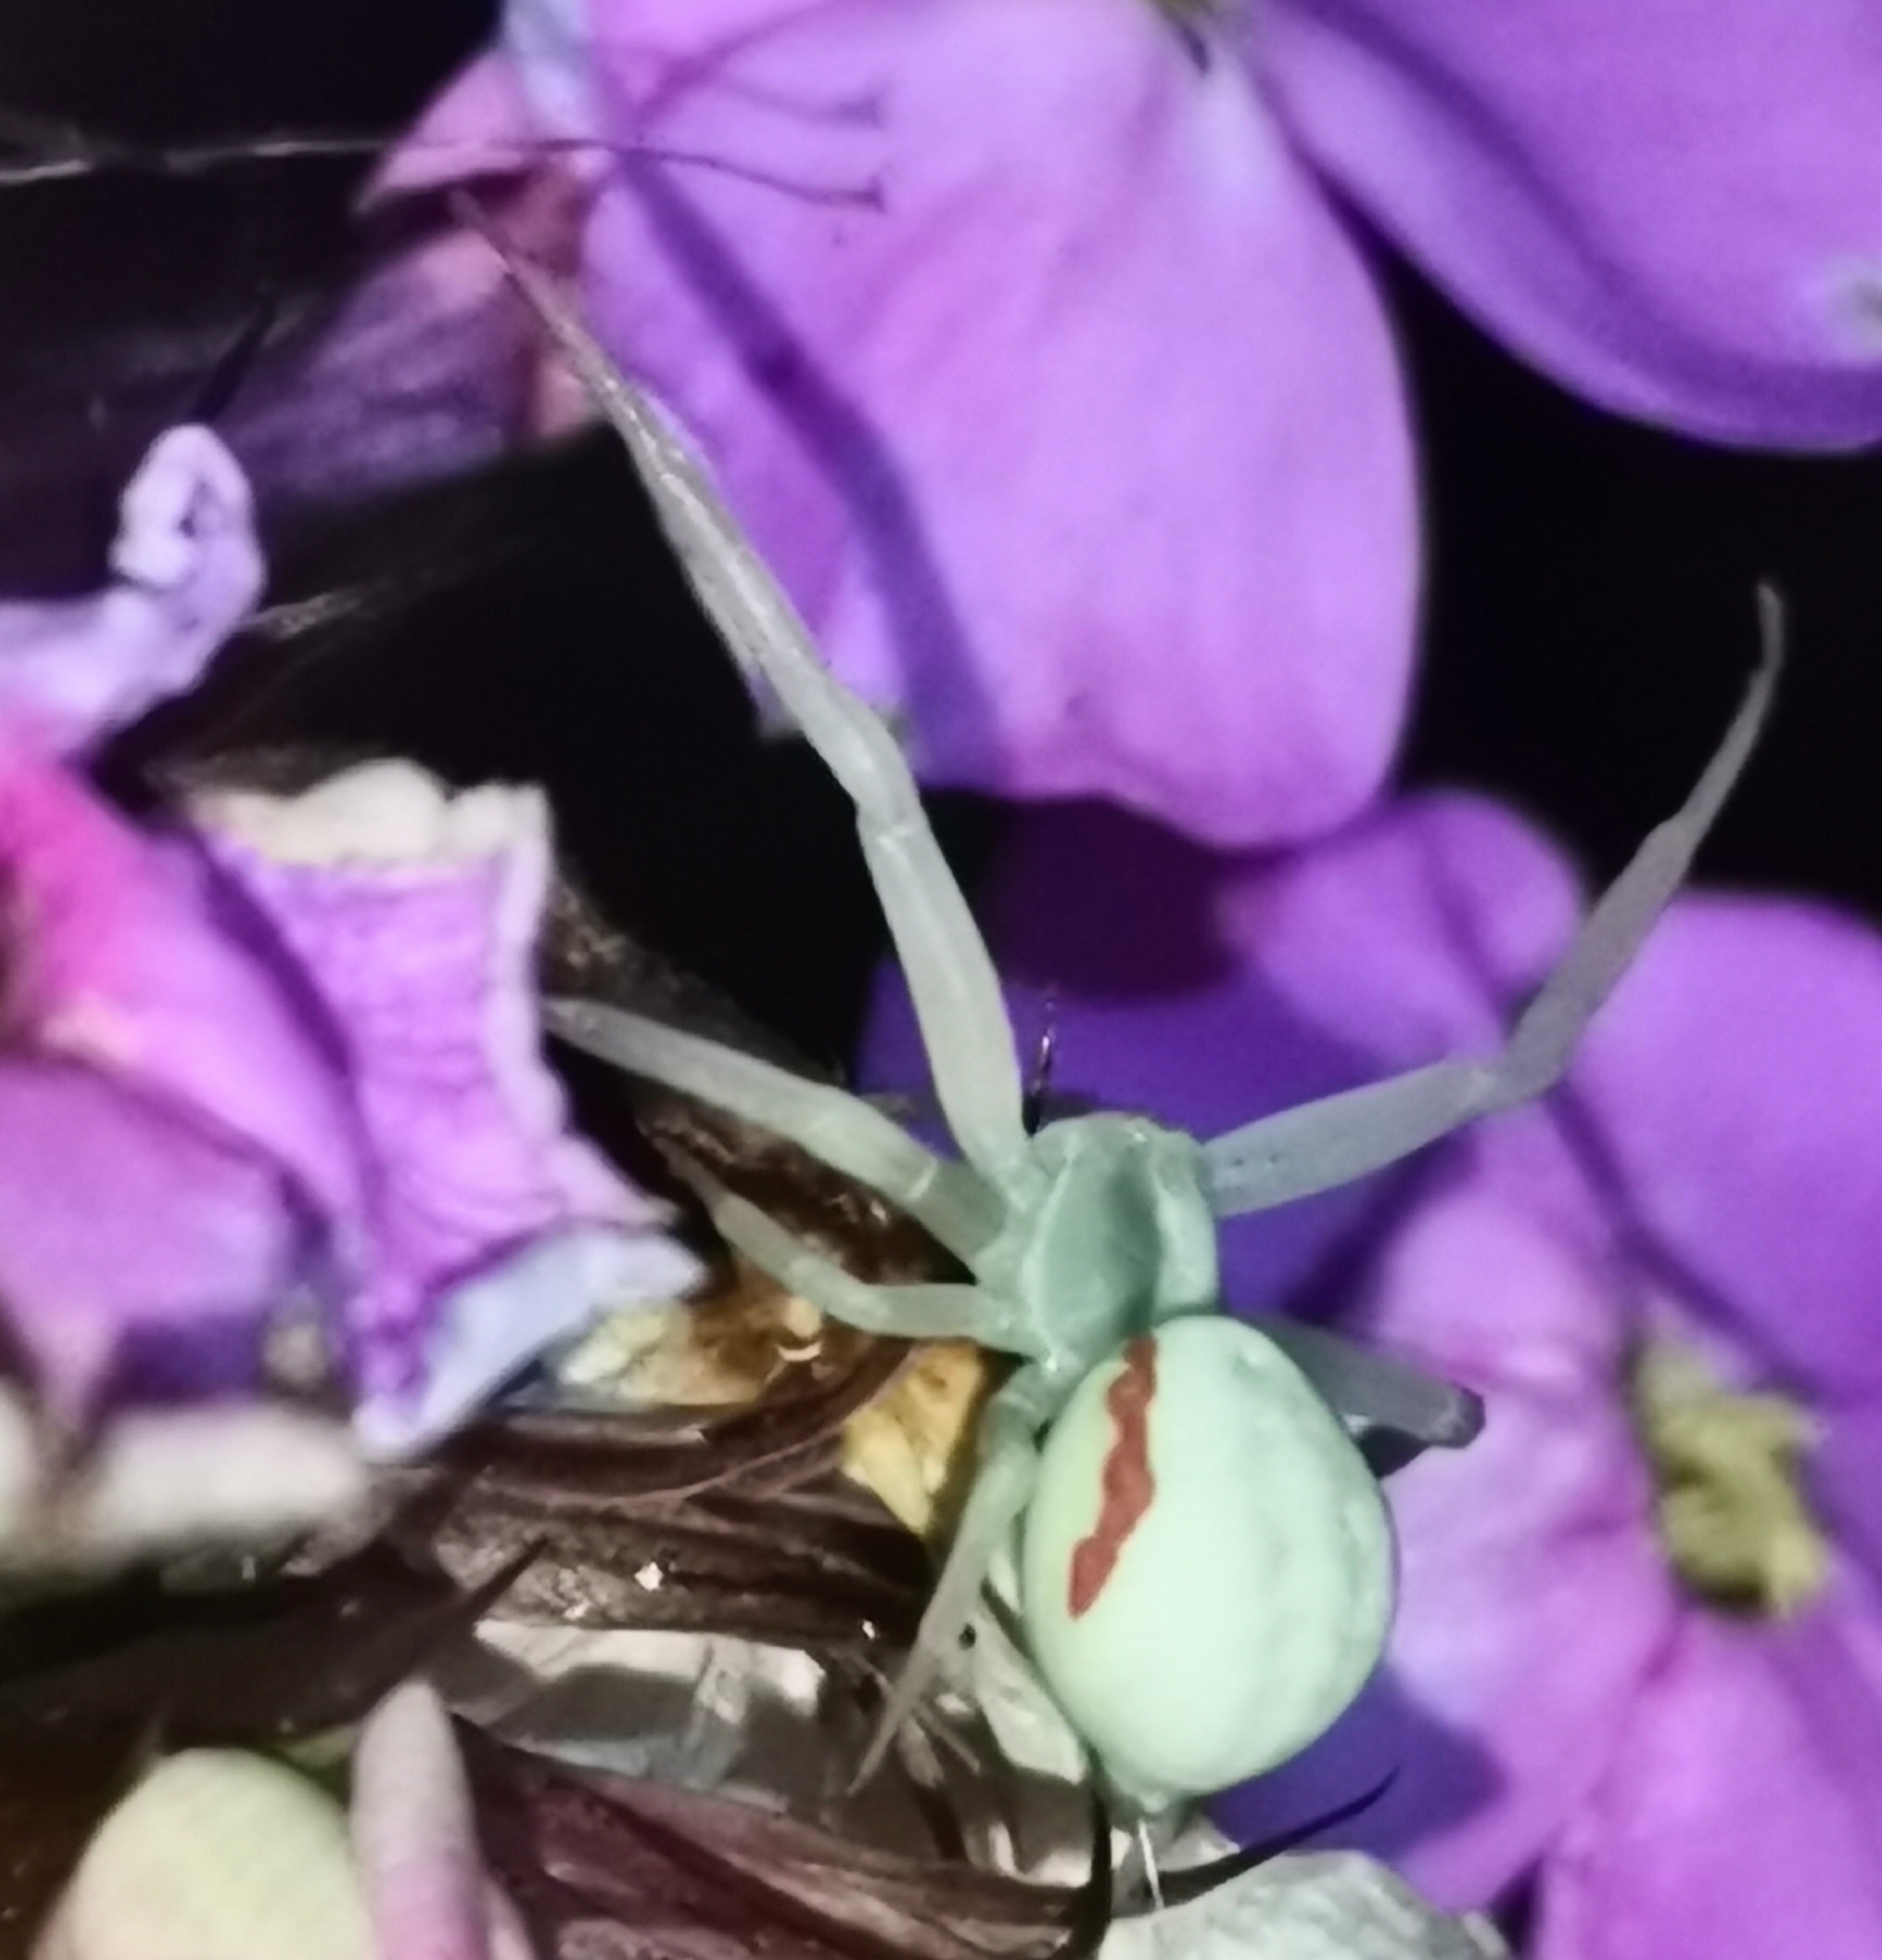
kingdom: Animalia
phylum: Arthropoda
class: Arachnida
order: Araneae
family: Thomisidae
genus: Misumena
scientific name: Misumena vatia
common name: Goldenrod crab spider
